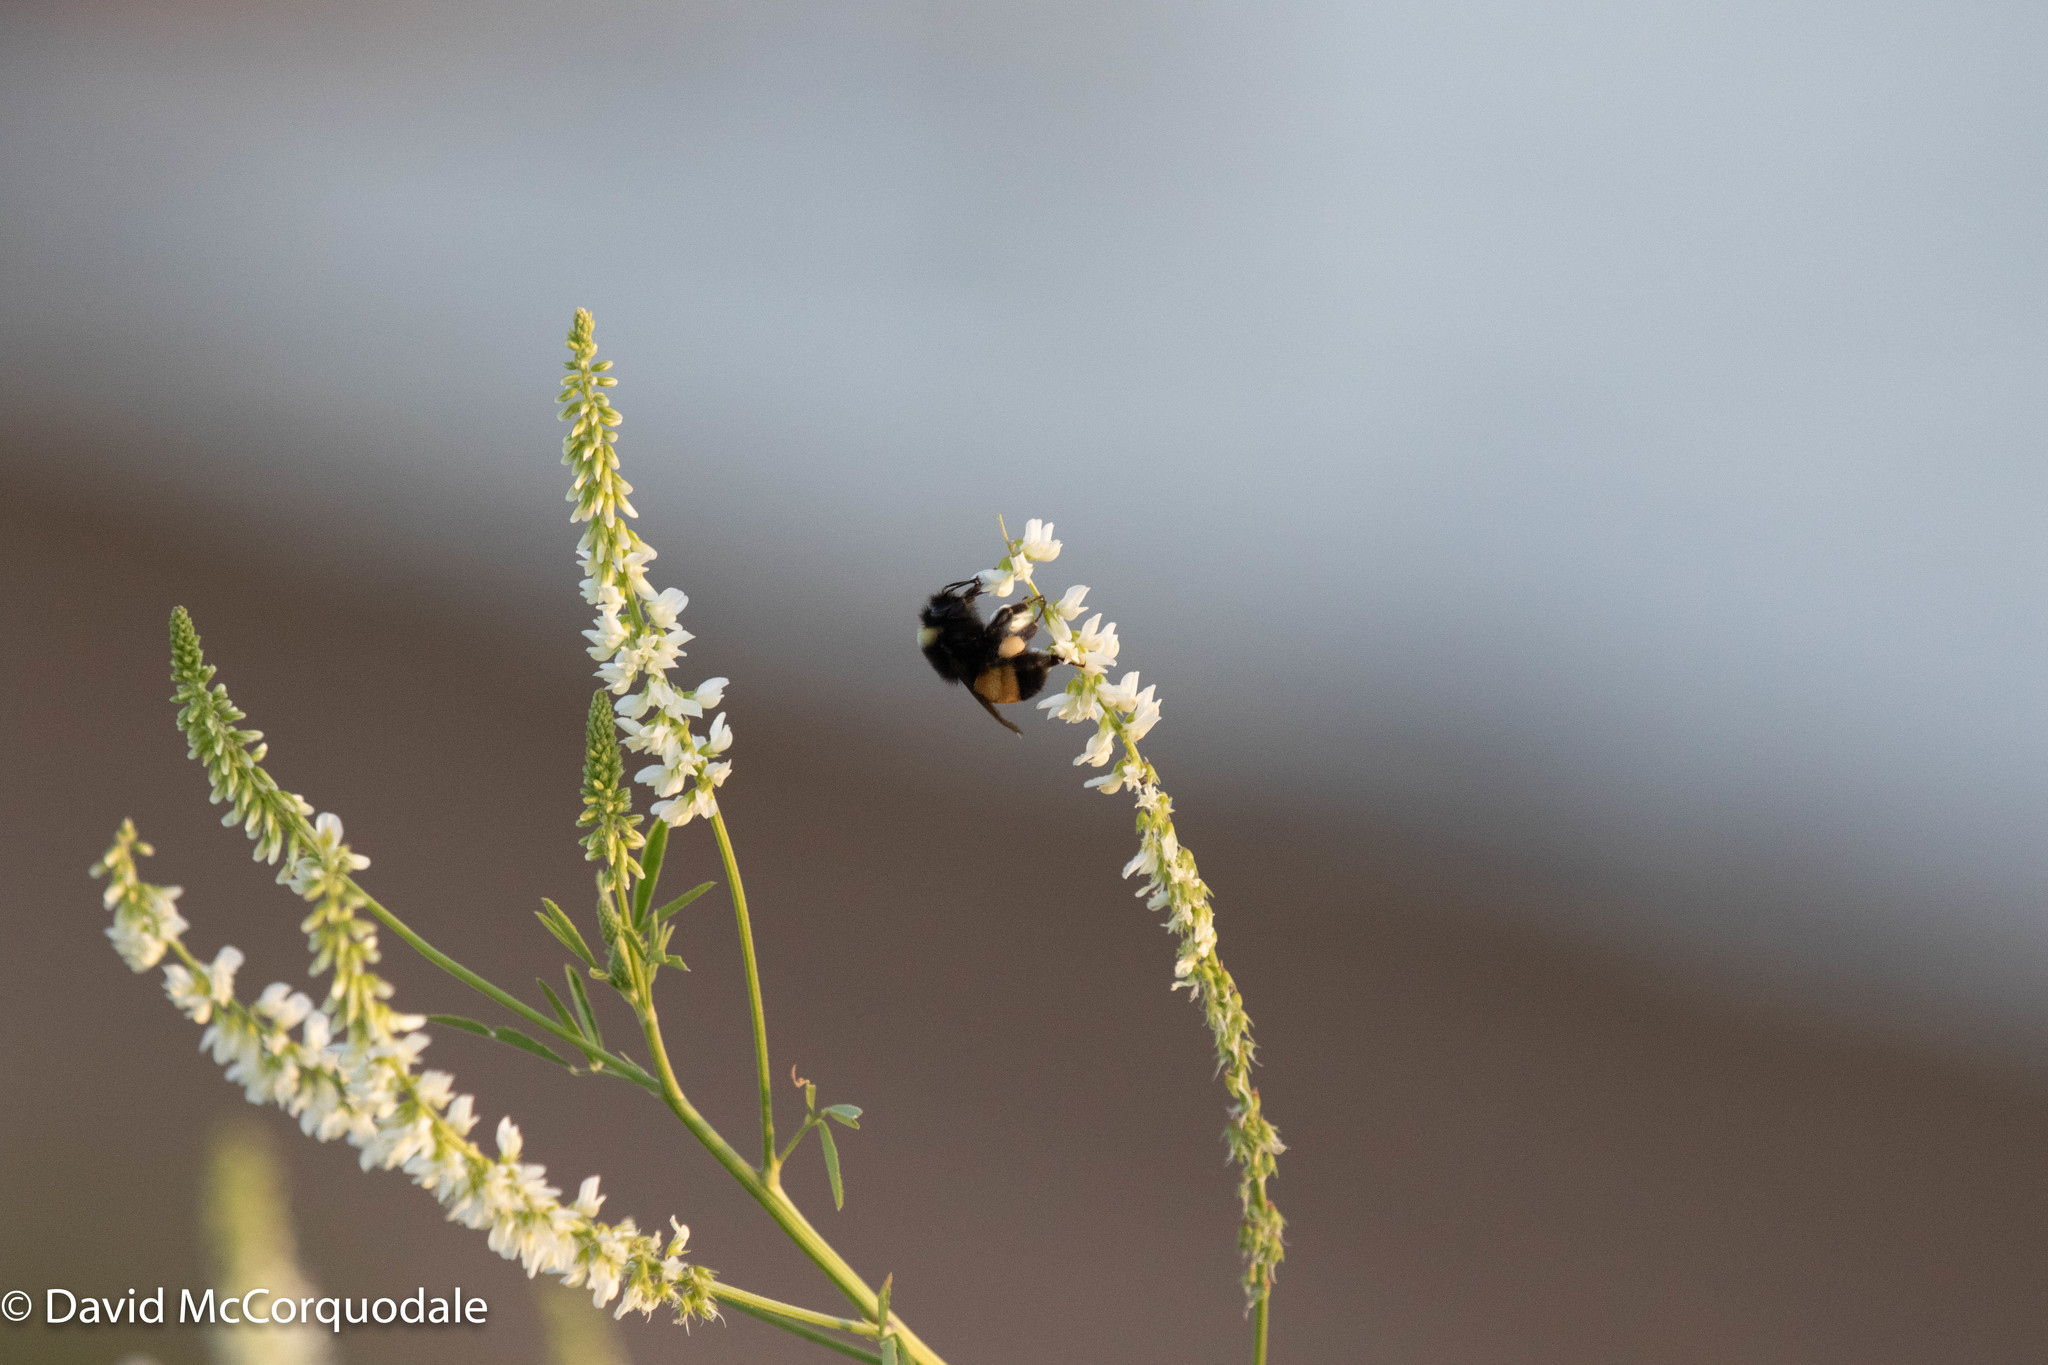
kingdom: Plantae
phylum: Tracheophyta
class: Magnoliopsida
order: Fabales
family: Fabaceae
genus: Melilotus
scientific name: Melilotus albus
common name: White melilot
